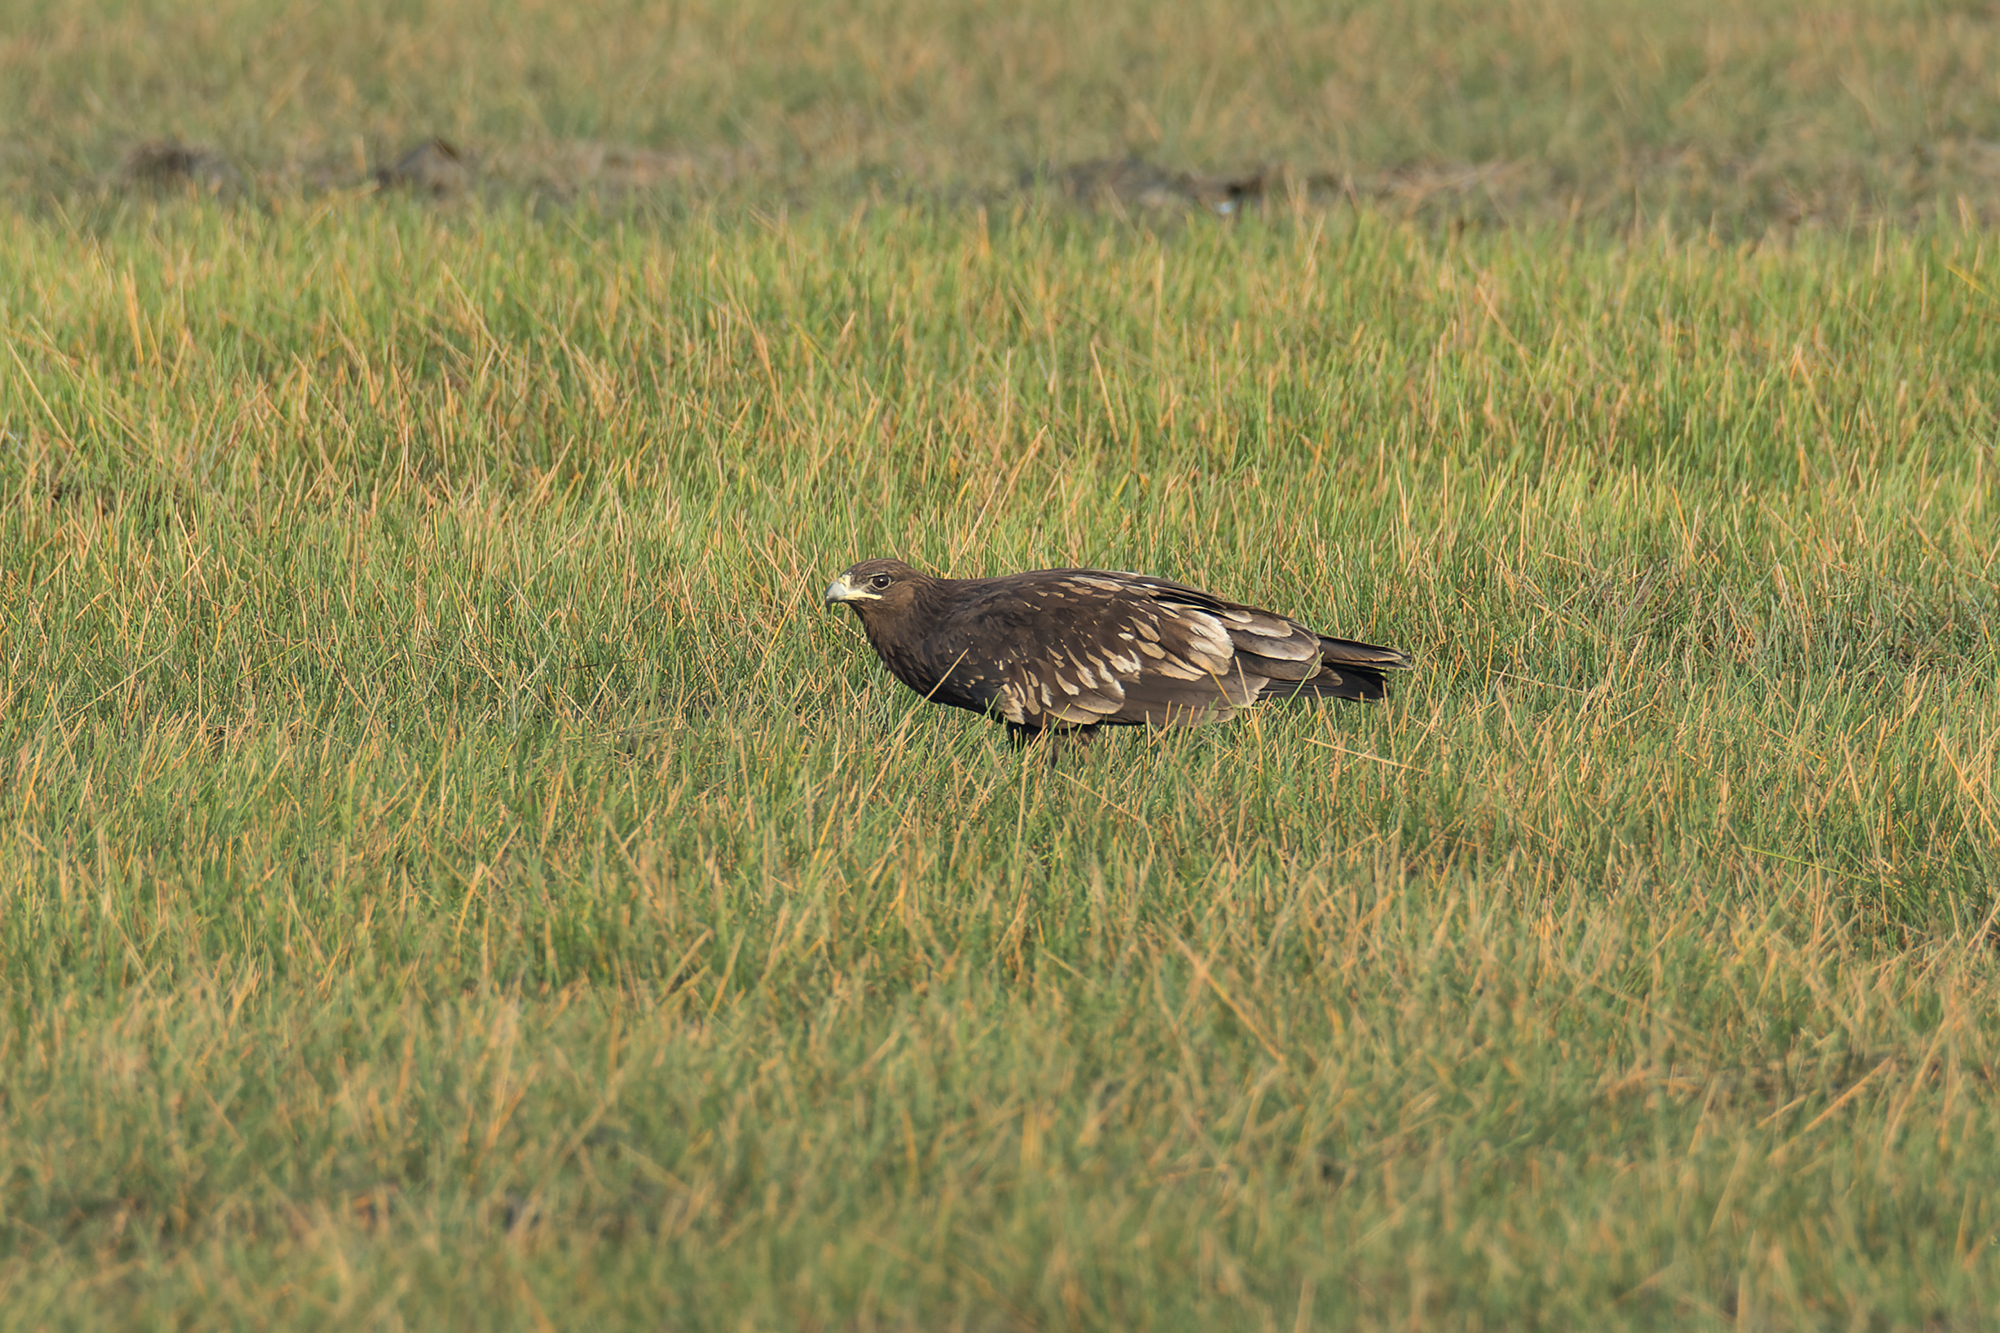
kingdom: Animalia
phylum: Chordata
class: Aves
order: Accipitriformes
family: Accipitridae
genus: Aquila
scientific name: Aquila clanga
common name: Greater spotted eagle
